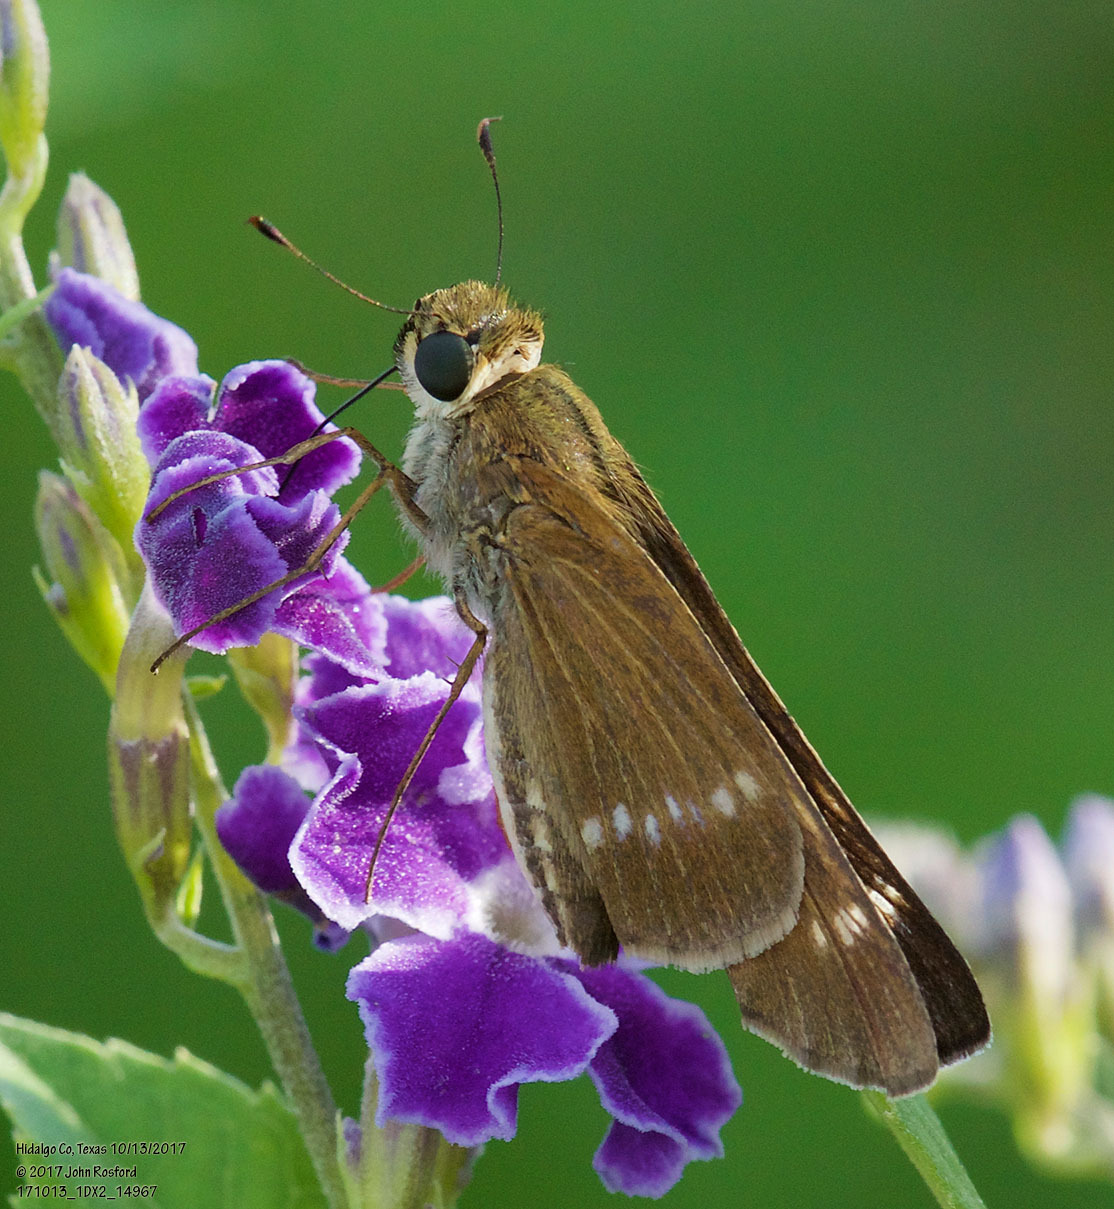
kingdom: Animalia
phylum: Arthropoda
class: Insecta
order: Lepidoptera
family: Hesperiidae
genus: Turesis
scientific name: Turesis lucas
